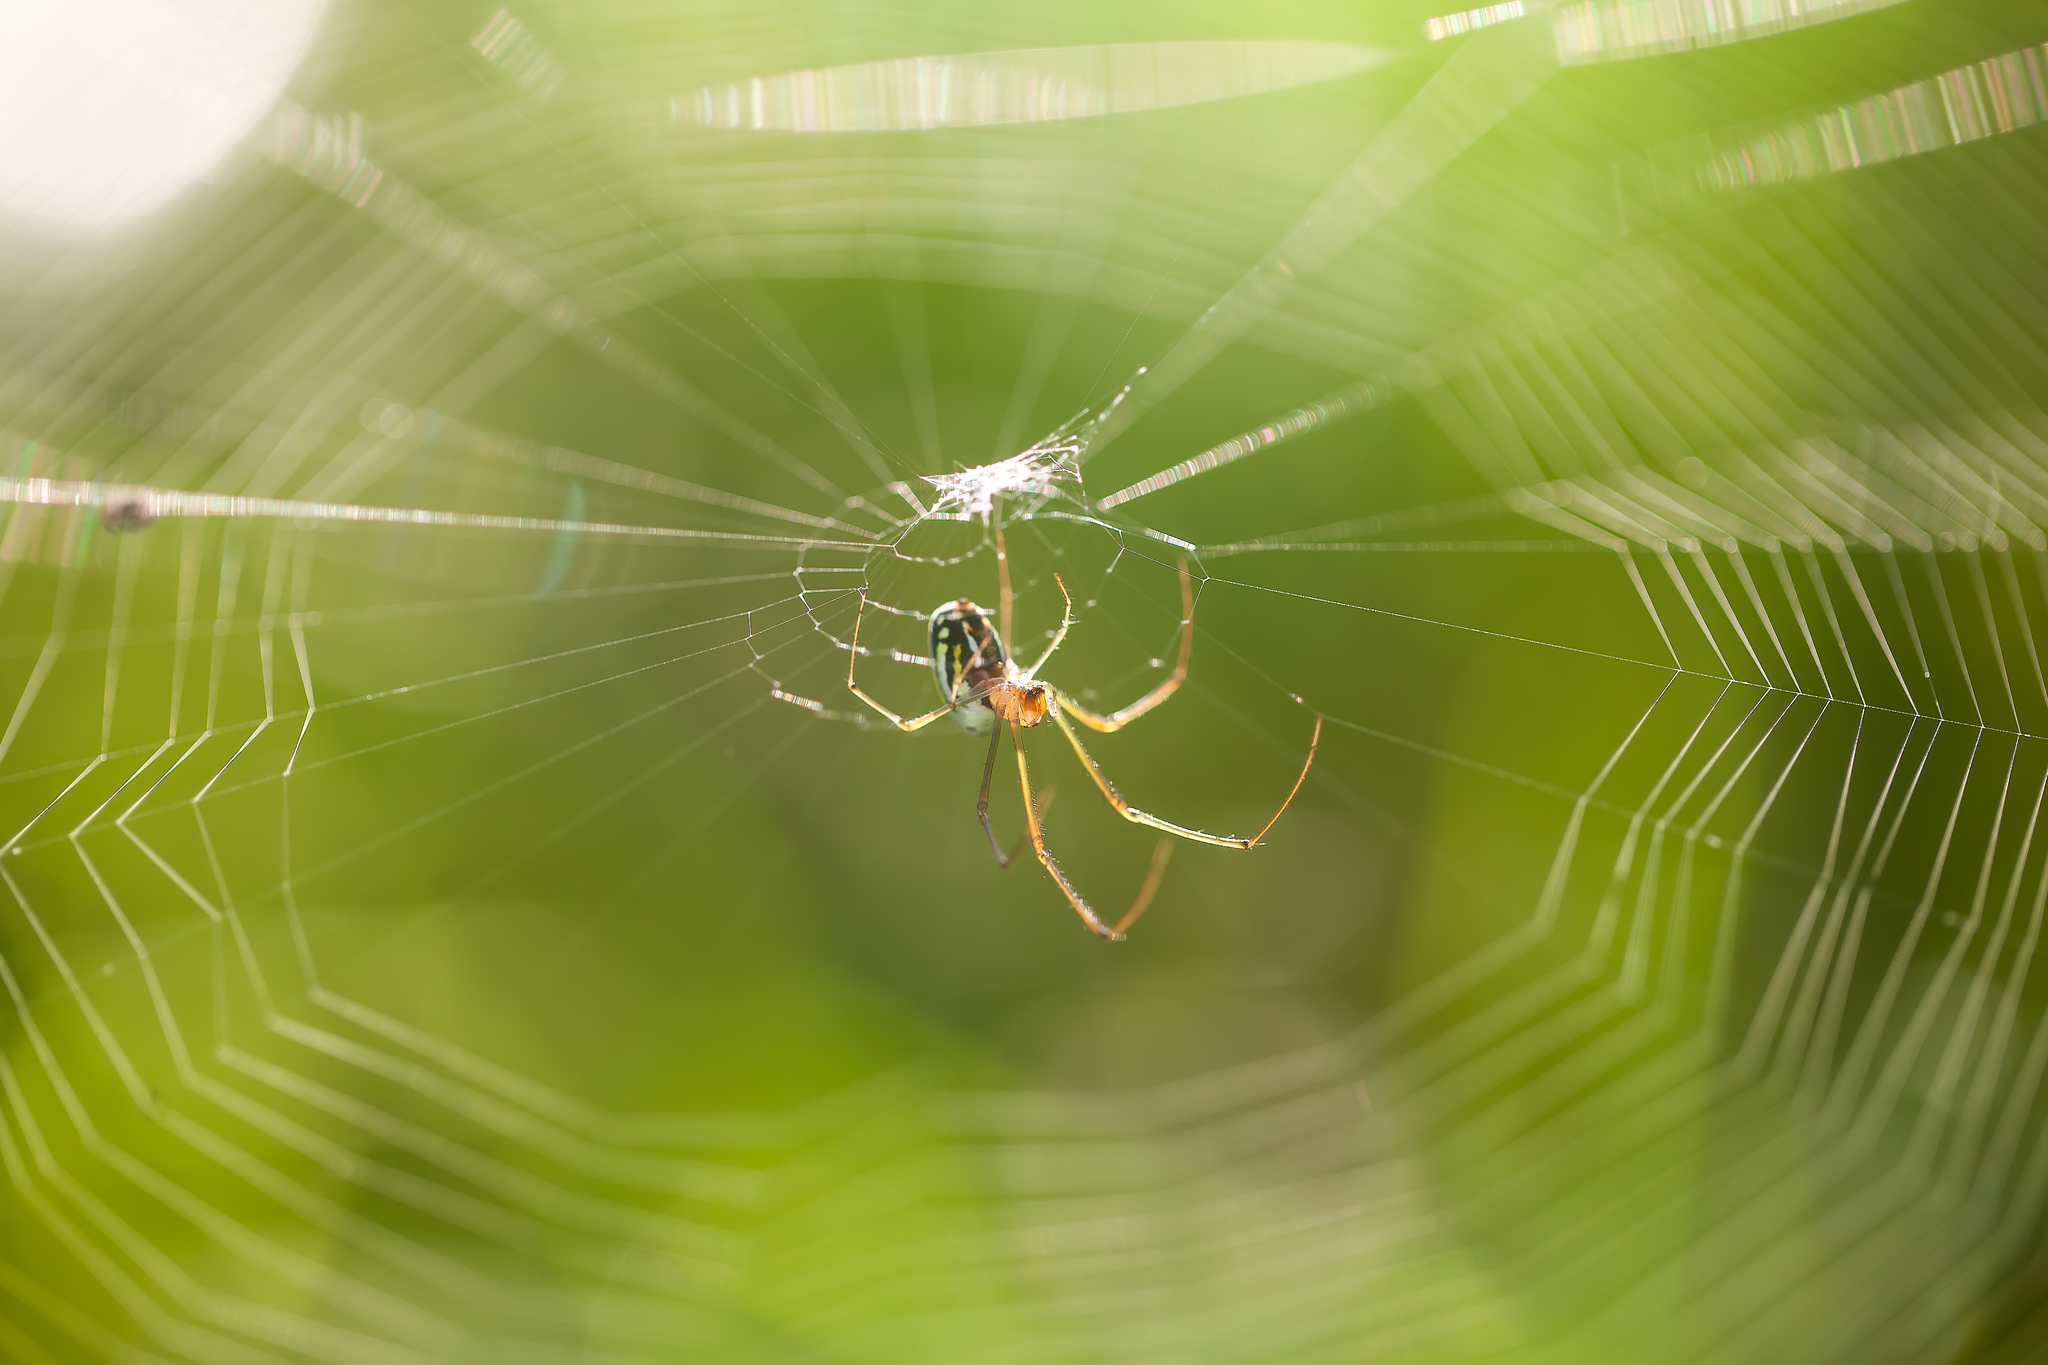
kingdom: Animalia
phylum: Arthropoda
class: Arachnida
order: Araneae
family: Tetragnathidae
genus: Leucauge
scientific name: Leucauge argyra
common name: Longjawed orb weavers
